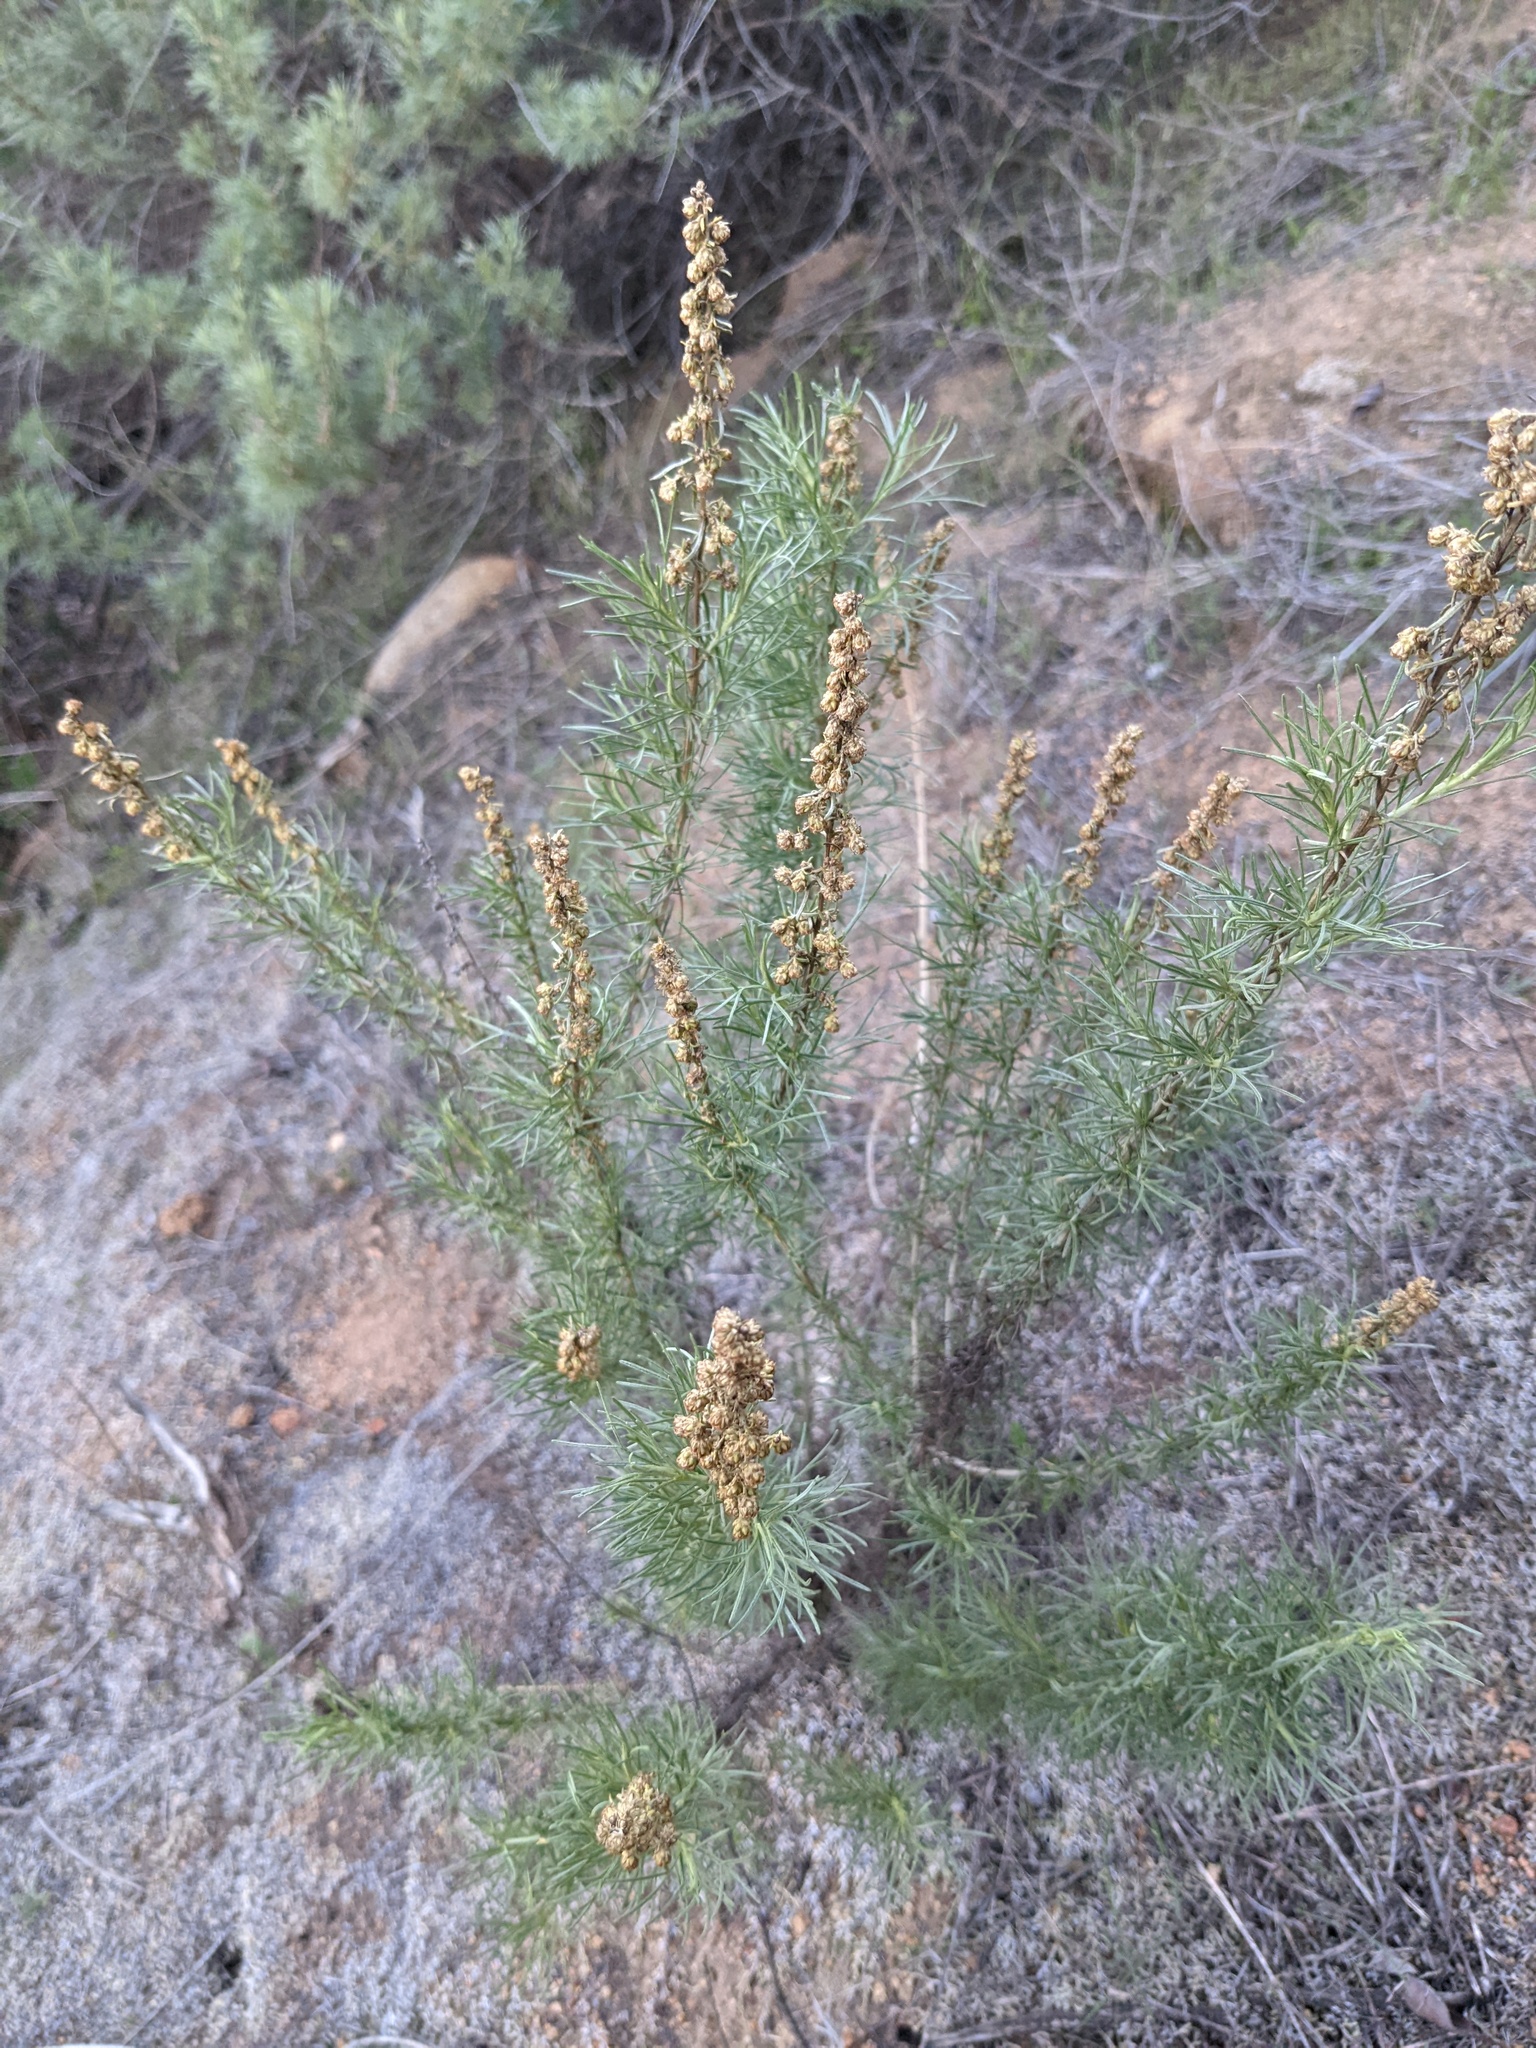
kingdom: Plantae
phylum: Tracheophyta
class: Magnoliopsida
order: Asterales
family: Asteraceae
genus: Artemisia
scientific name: Artemisia californica
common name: California sagebrush
